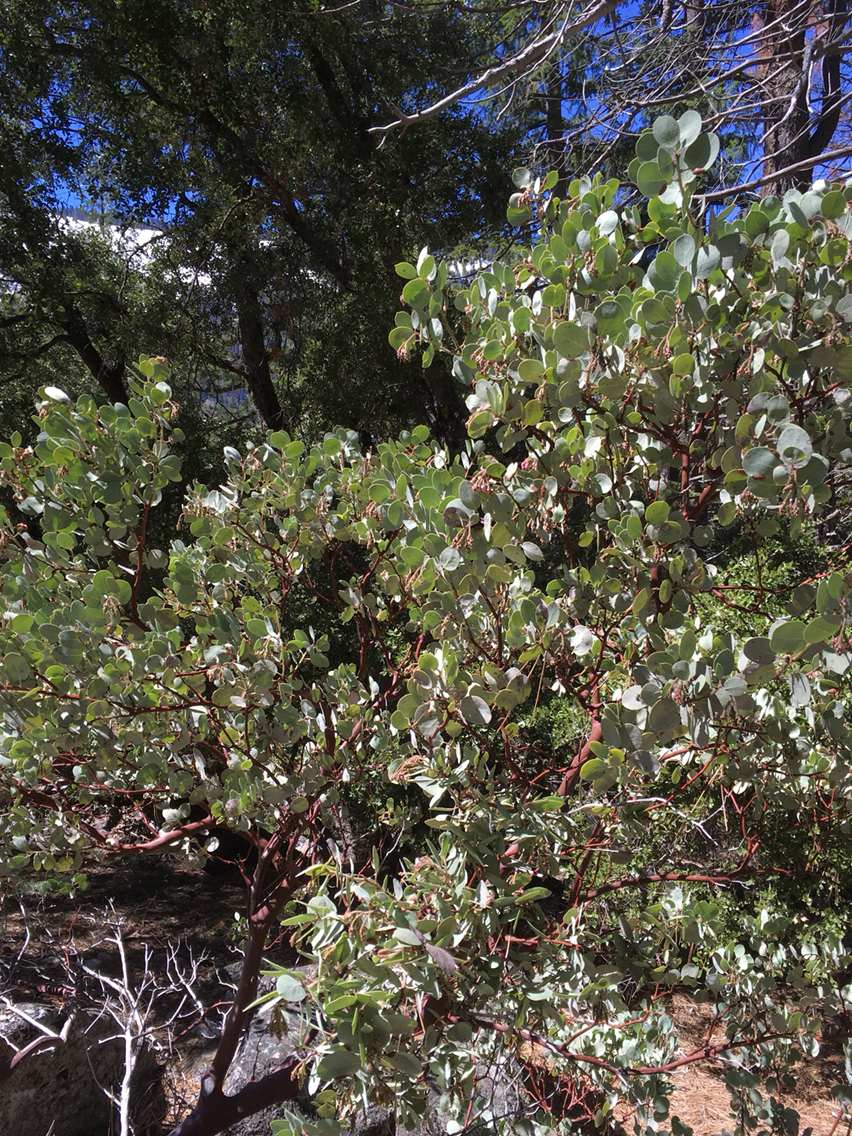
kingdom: Plantae
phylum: Tracheophyta
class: Magnoliopsida
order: Ericales
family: Ericaceae
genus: Arctostaphylos
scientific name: Arctostaphylos viscida
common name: White-leaf manzanita
